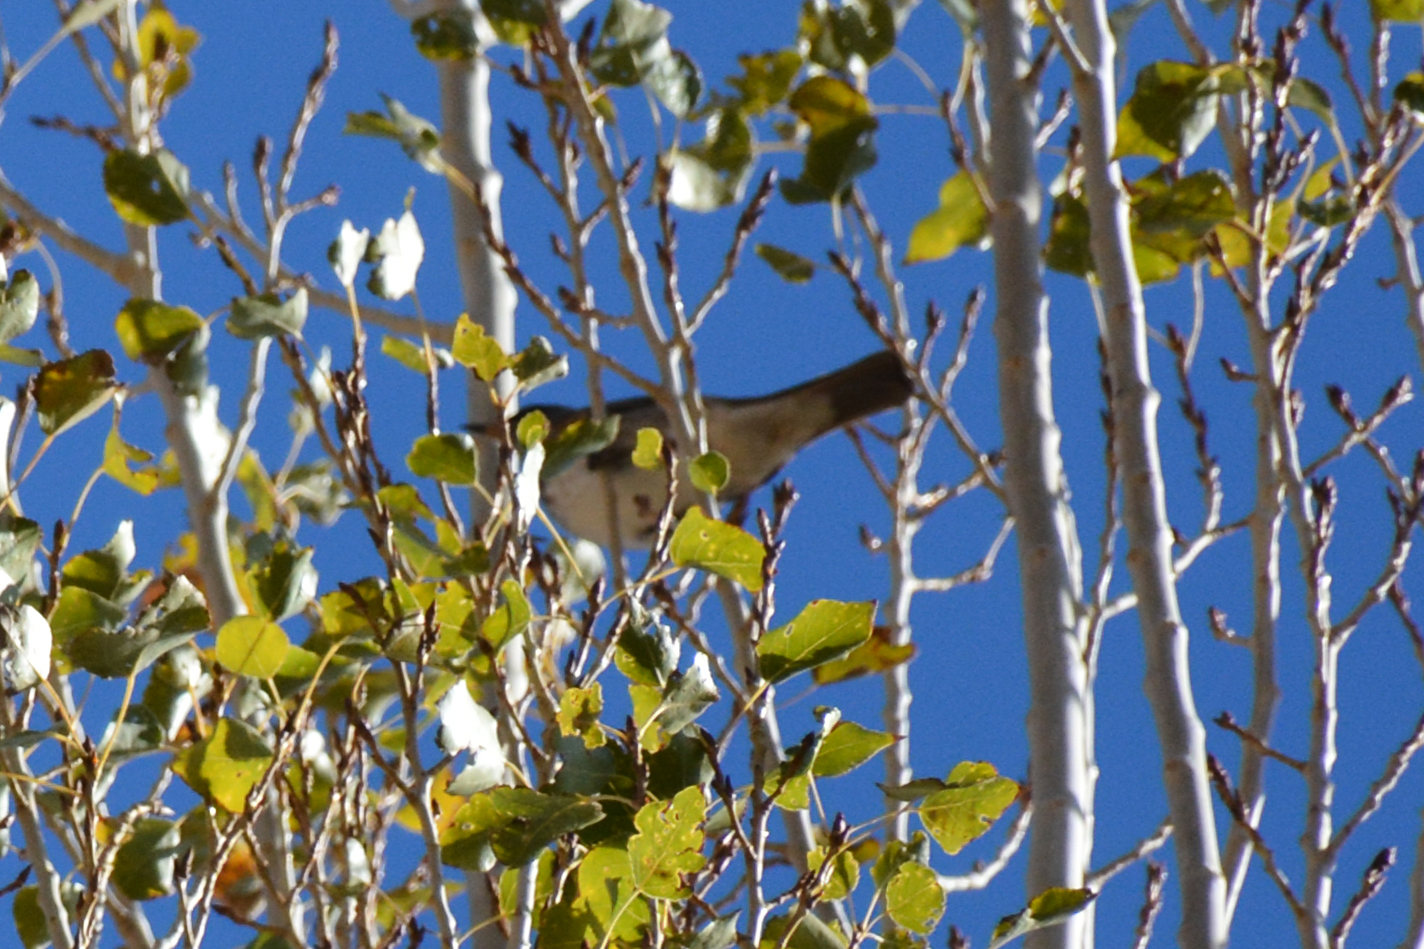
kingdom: Animalia
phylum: Chordata
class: Aves
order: Passeriformes
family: Turdidae
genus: Turdus
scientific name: Turdus atrogularis
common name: Black-throated thrush
